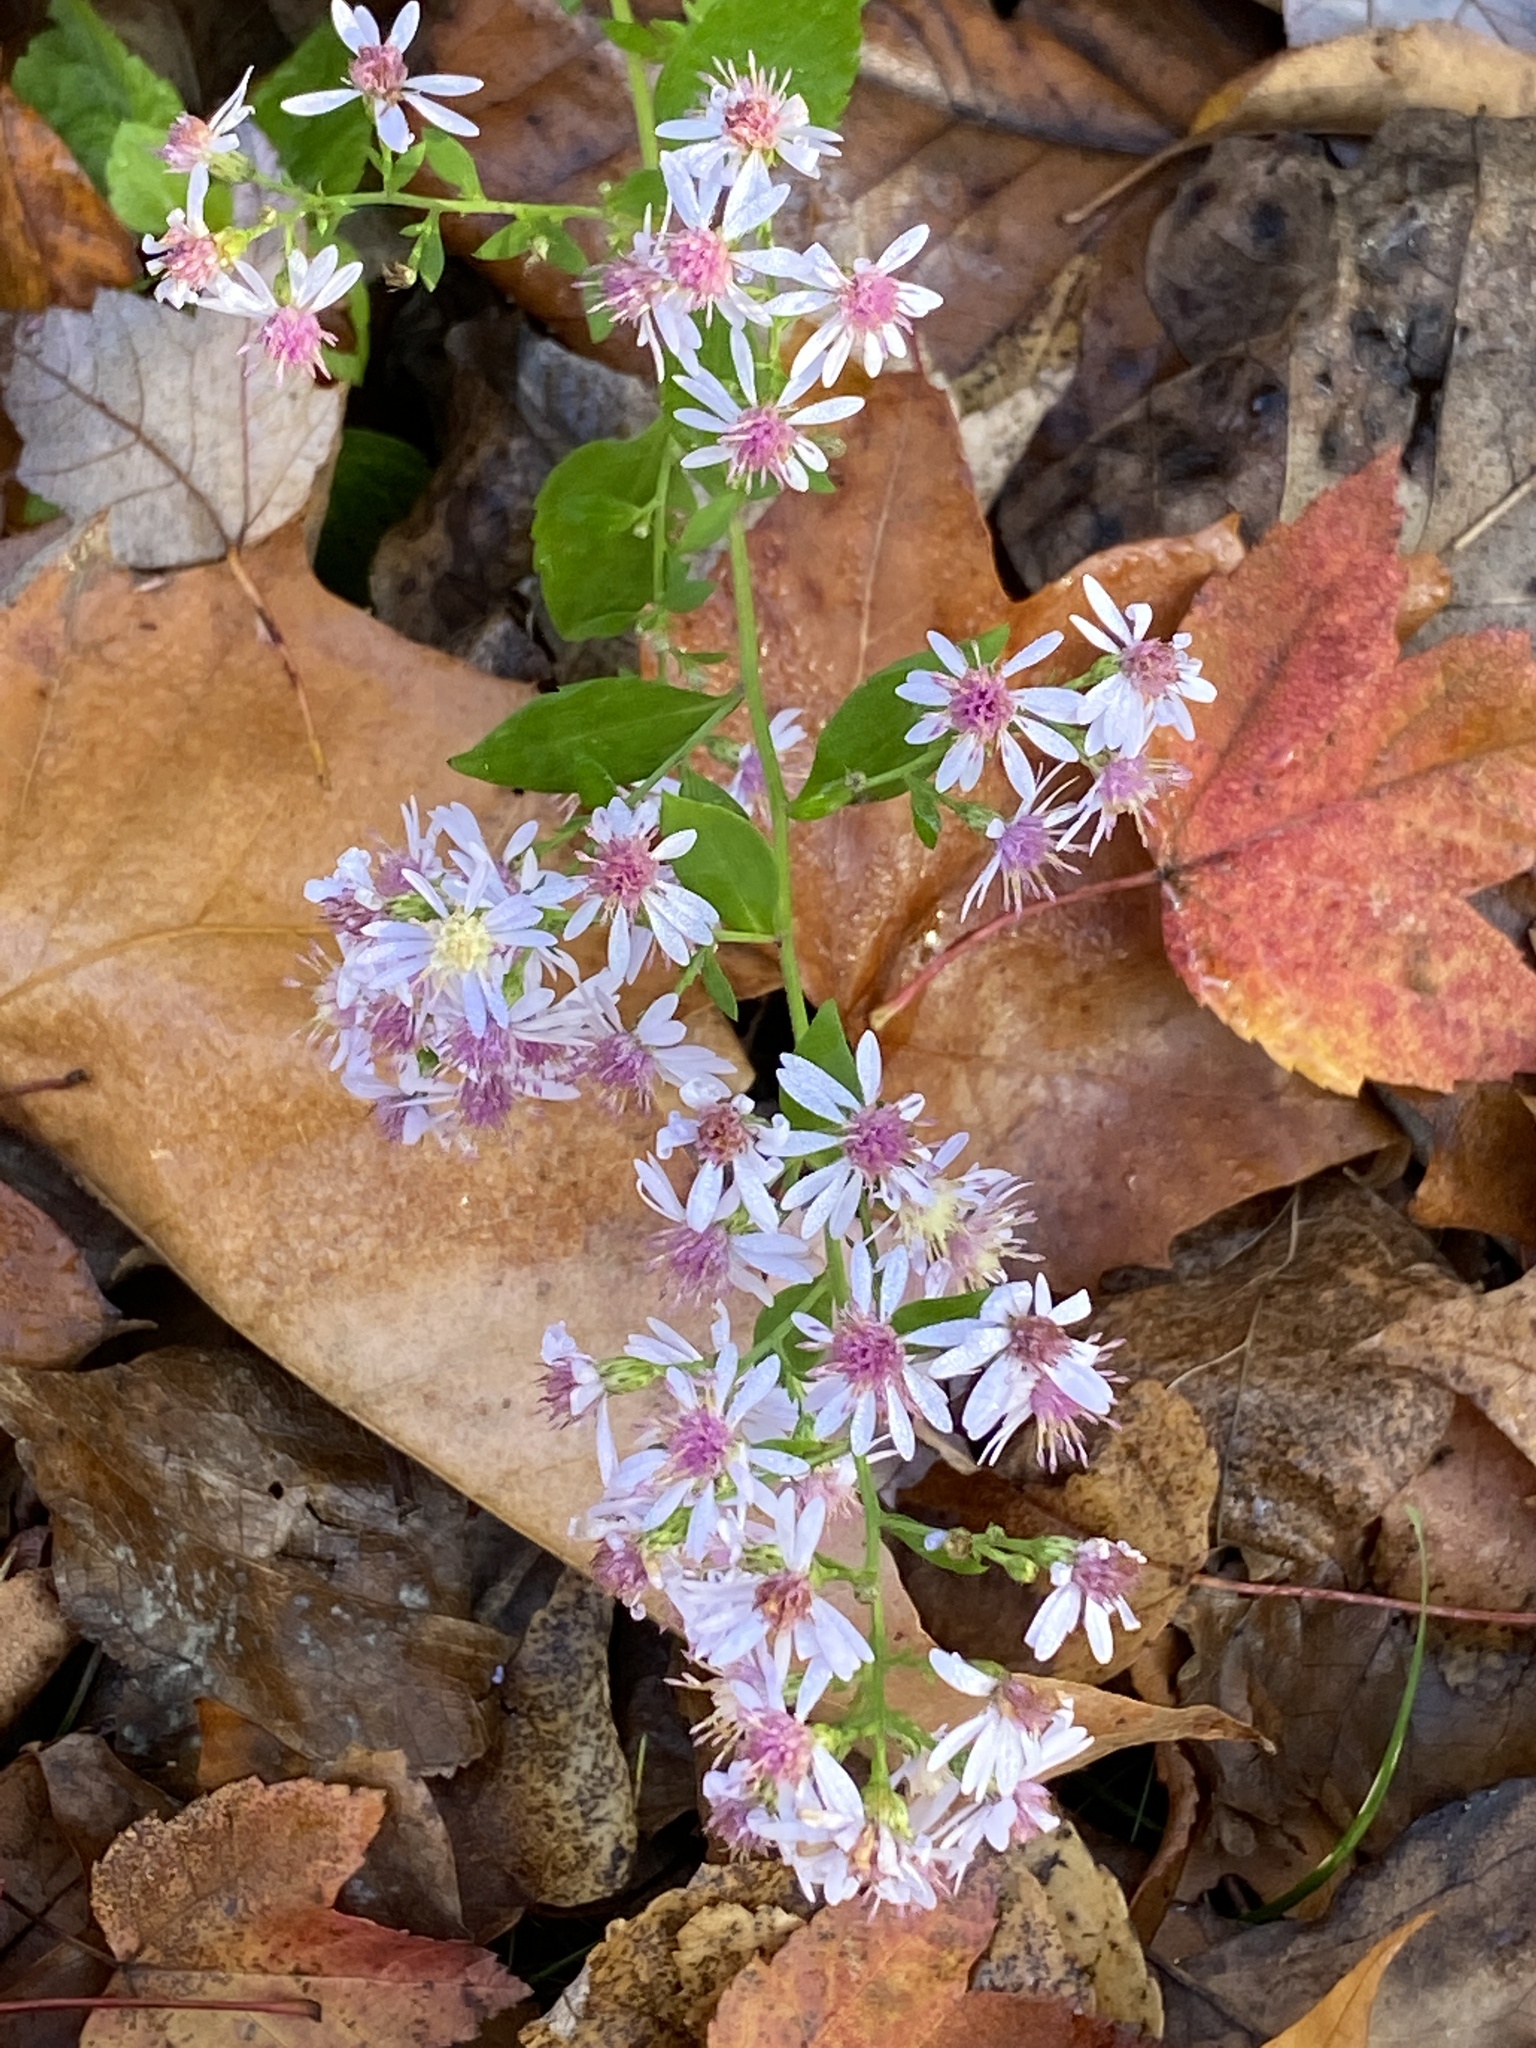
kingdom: Plantae
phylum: Tracheophyta
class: Magnoliopsida
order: Asterales
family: Asteraceae
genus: Symphyotrichum
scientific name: Symphyotrichum cordifolium
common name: Beeweed
